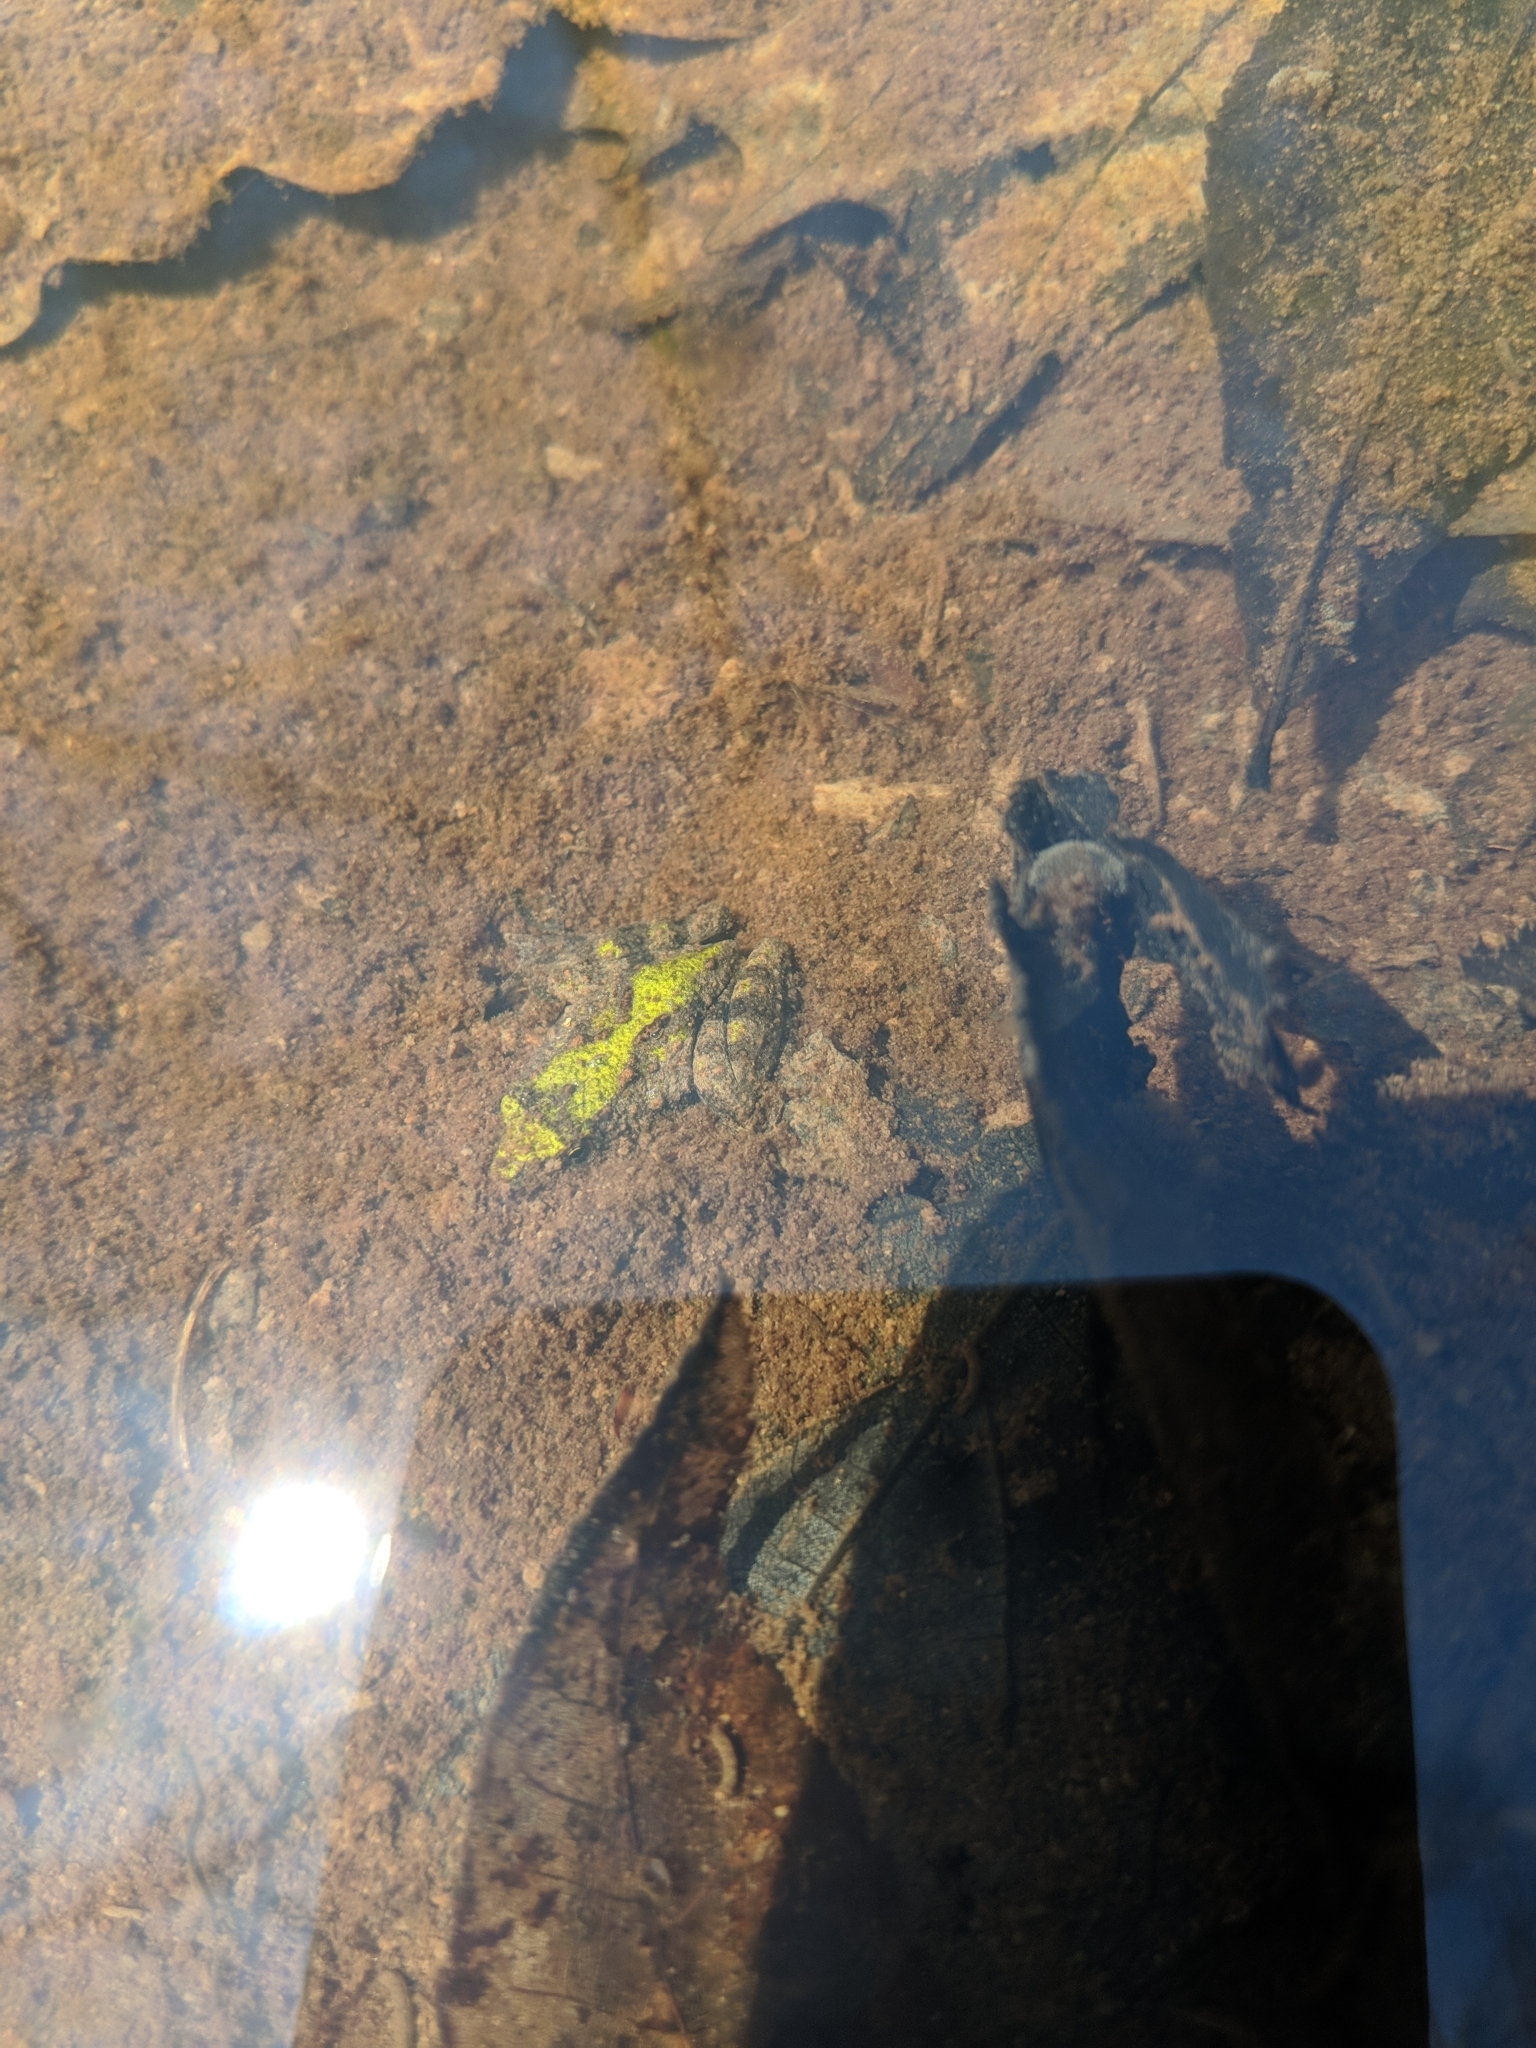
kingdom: Animalia
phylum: Chordata
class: Amphibia
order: Anura
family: Hylidae
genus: Acris
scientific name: Acris blanchardi
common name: Blanchard's cricket frog
